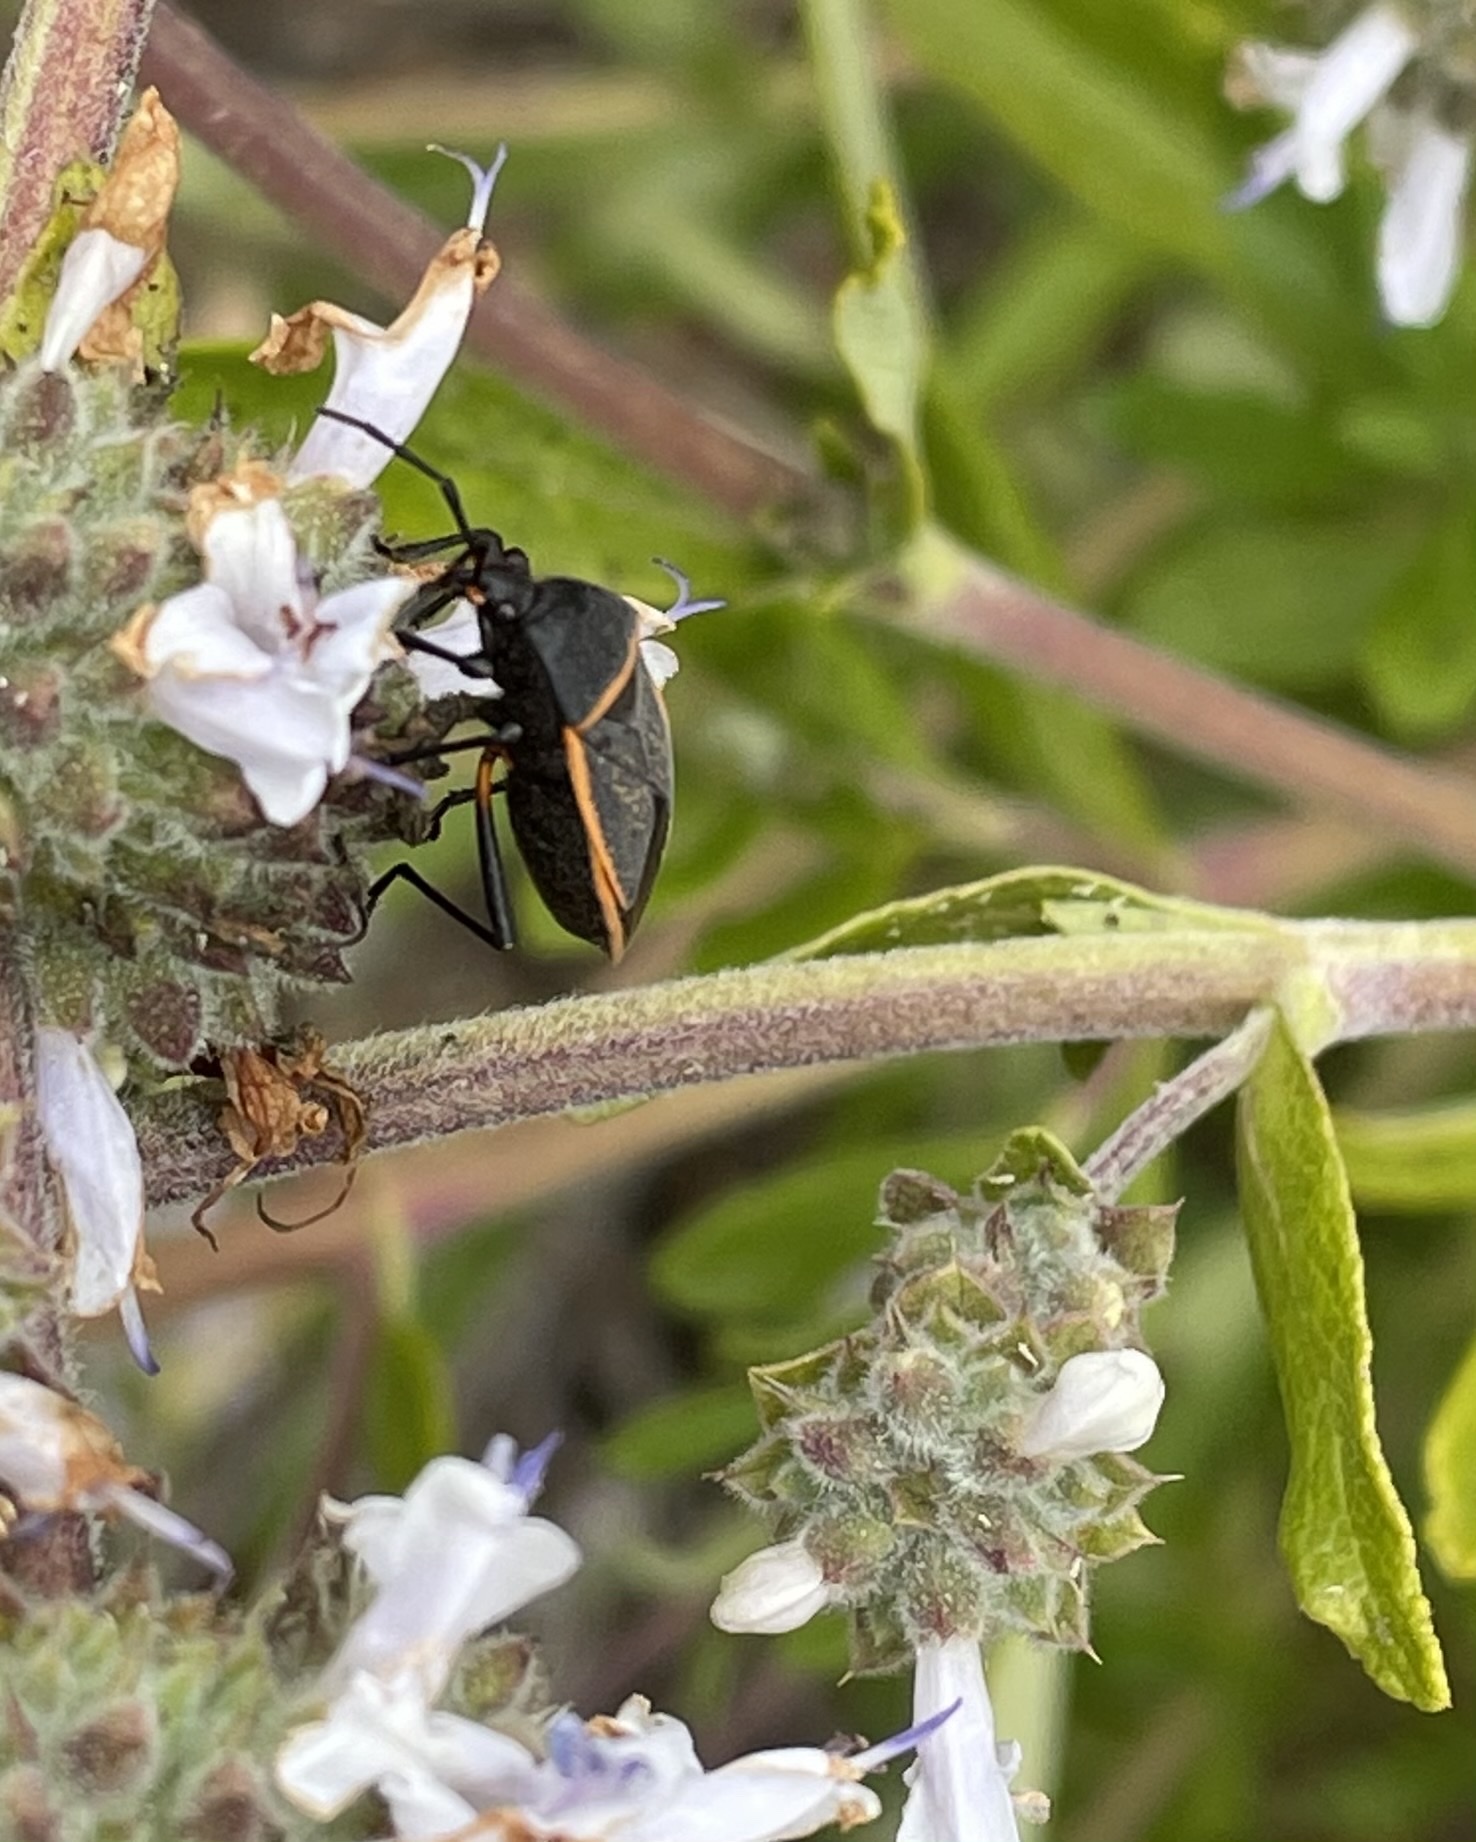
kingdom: Animalia
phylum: Arthropoda
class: Insecta
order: Hemiptera
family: Largidae
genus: Largus
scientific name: Largus californicus
